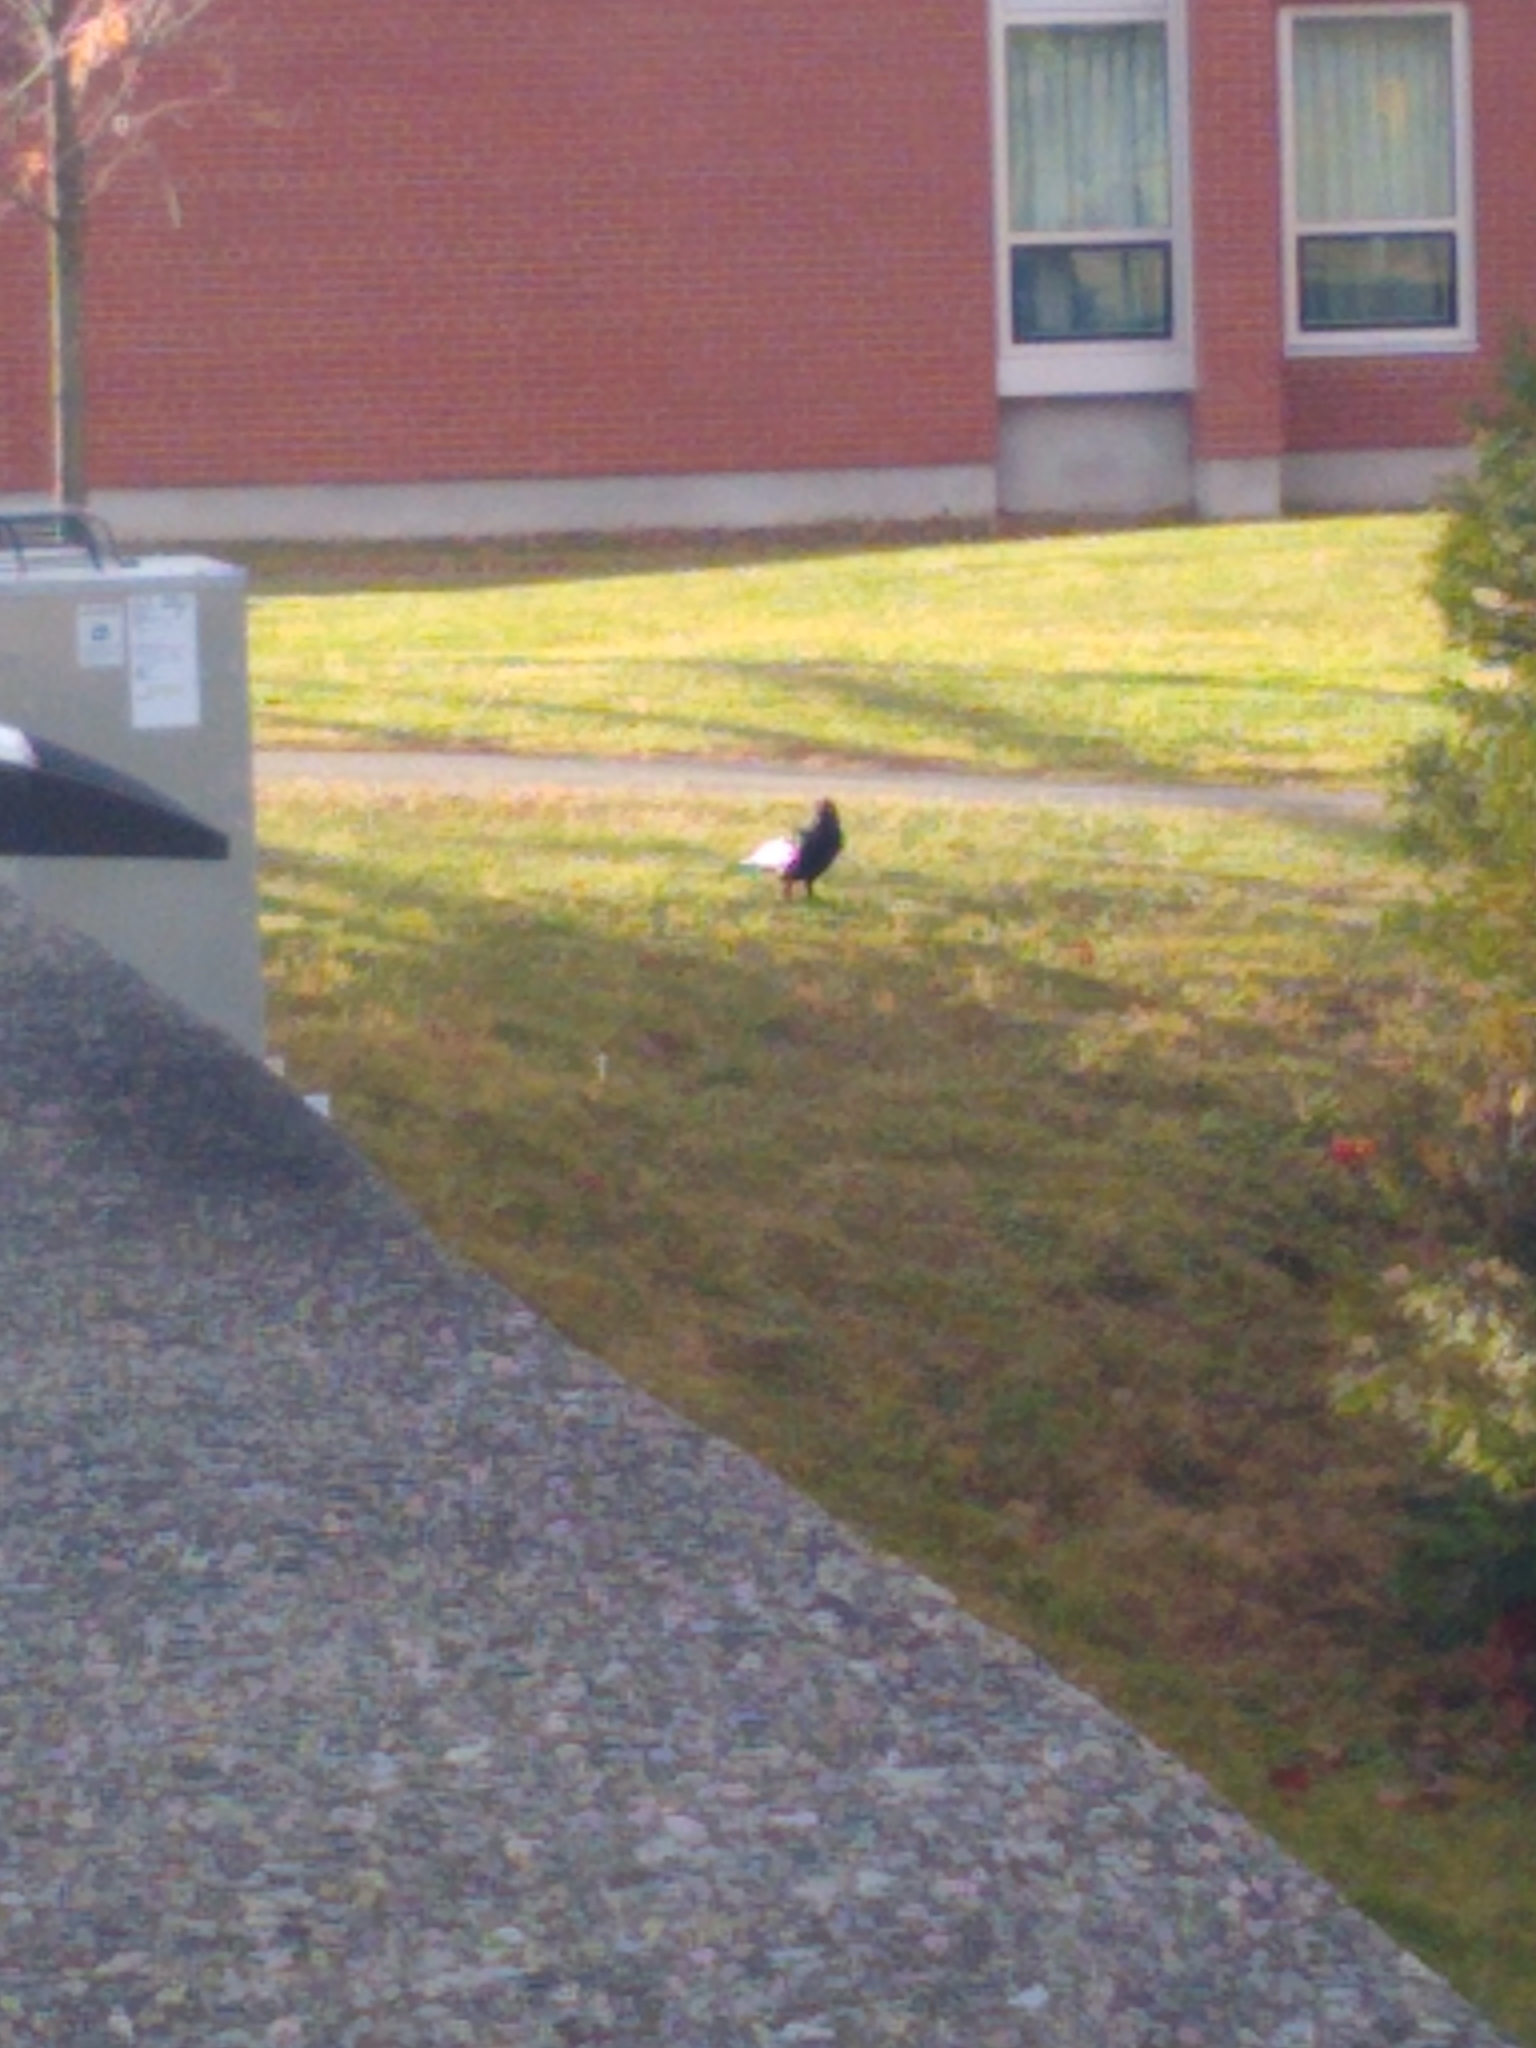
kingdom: Animalia
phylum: Chordata
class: Aves
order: Passeriformes
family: Corvidae
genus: Corvus
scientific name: Corvus brachyrhynchos
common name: American crow
